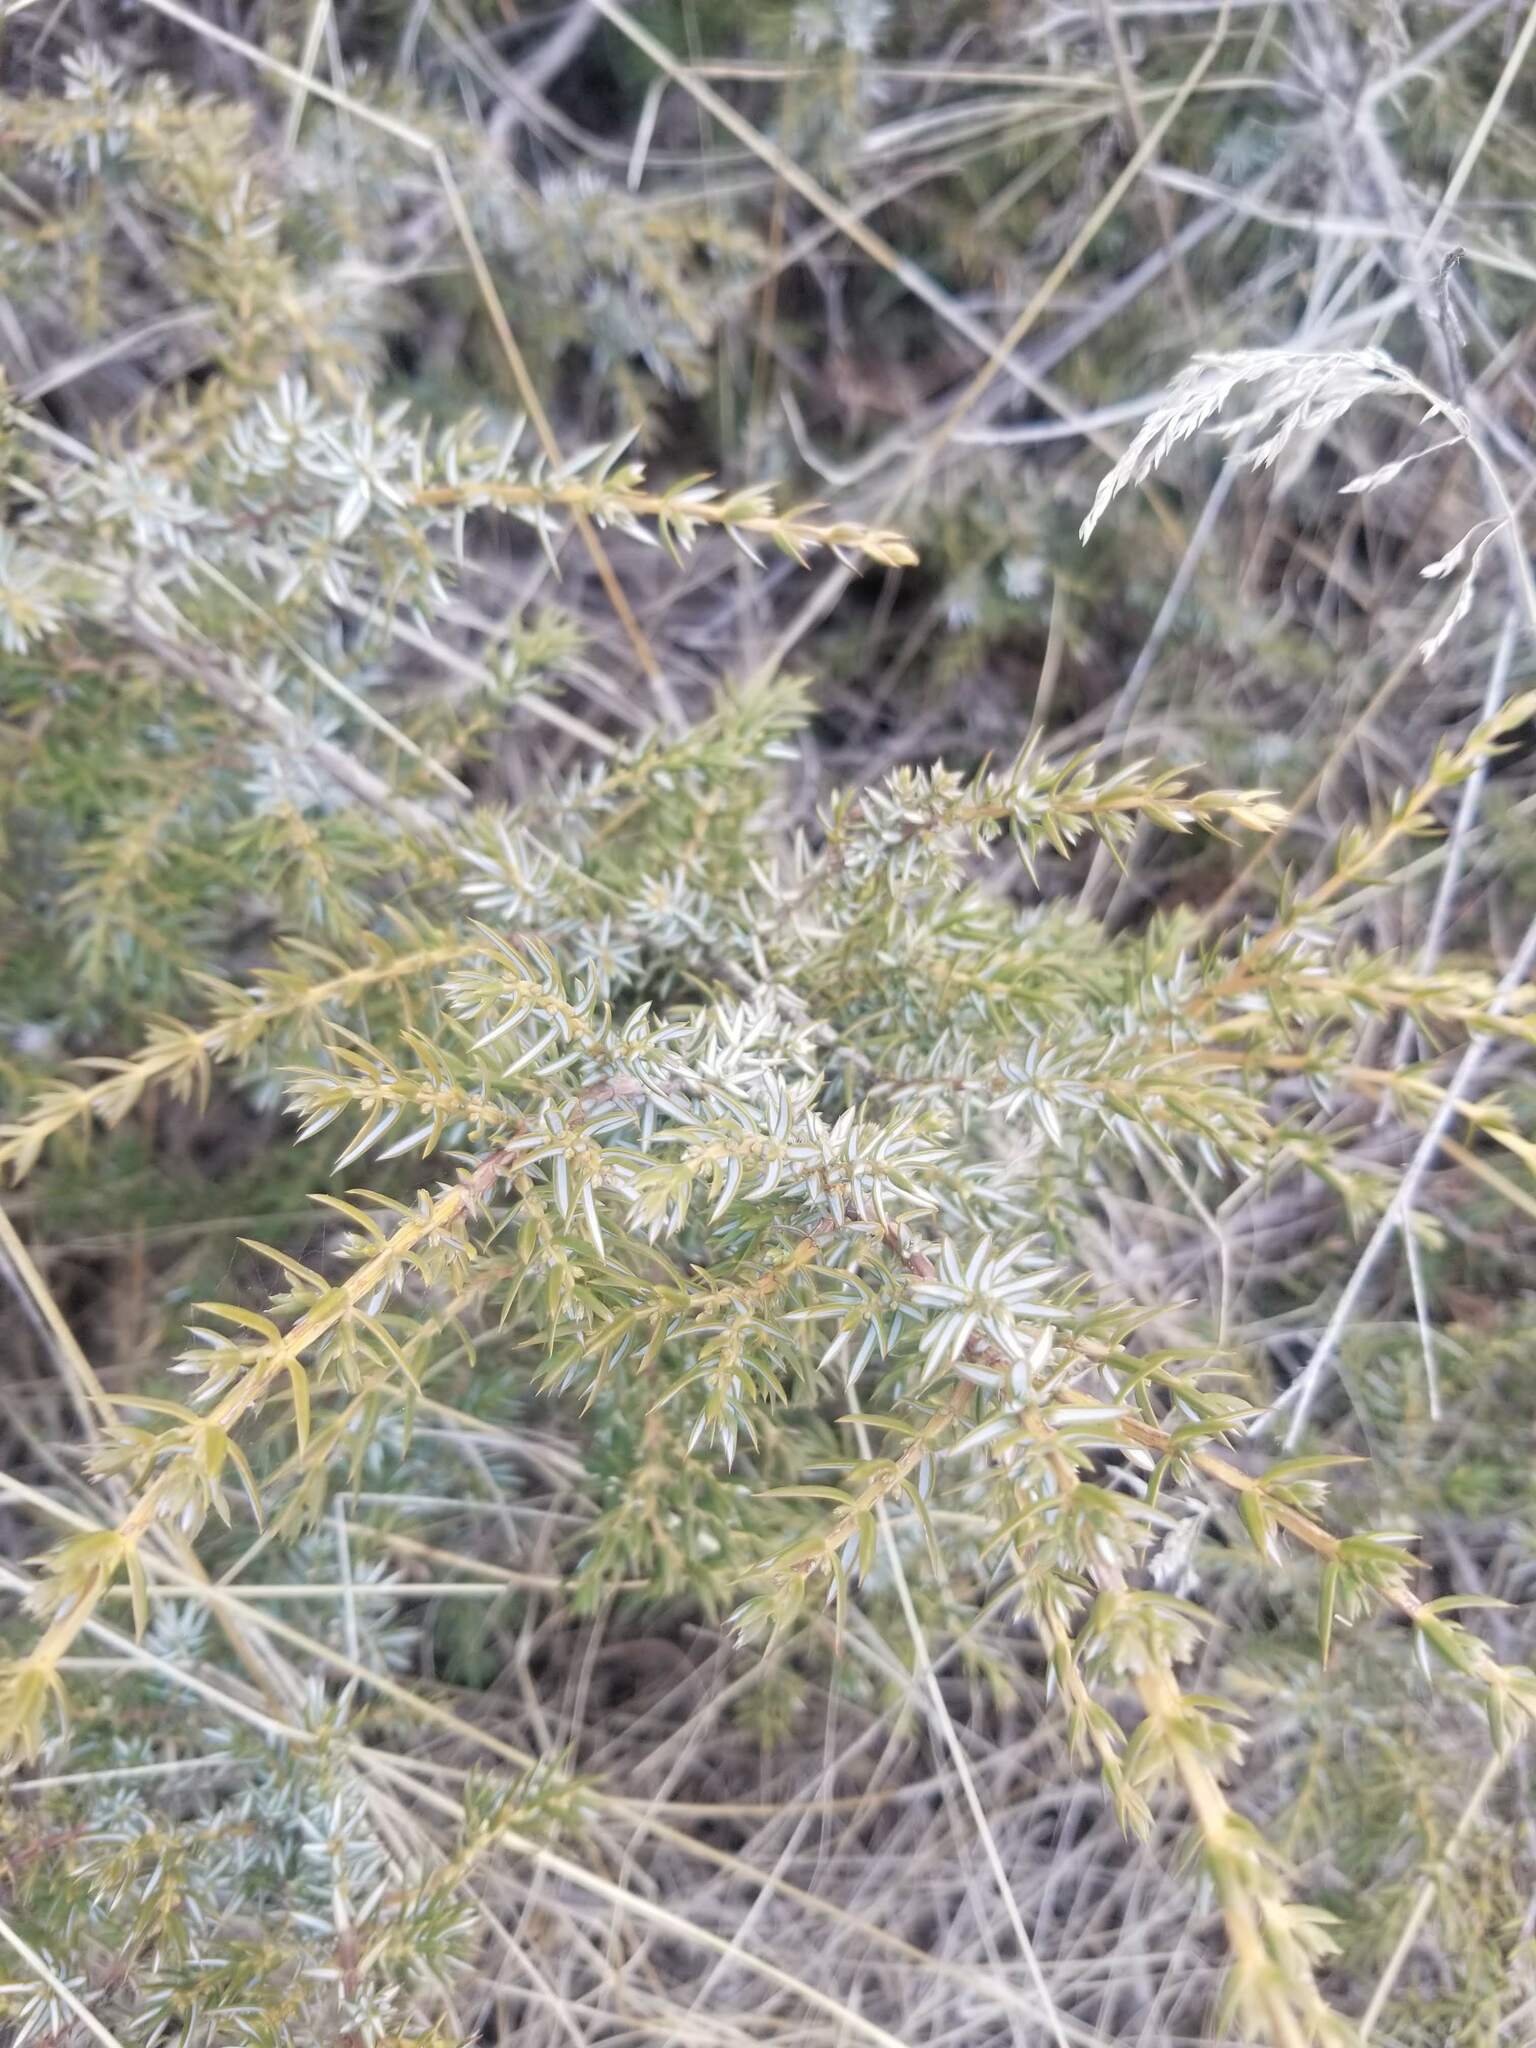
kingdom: Plantae
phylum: Tracheophyta
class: Pinopsida
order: Pinales
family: Cupressaceae
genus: Juniperus
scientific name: Juniperus communis
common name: Common juniper
